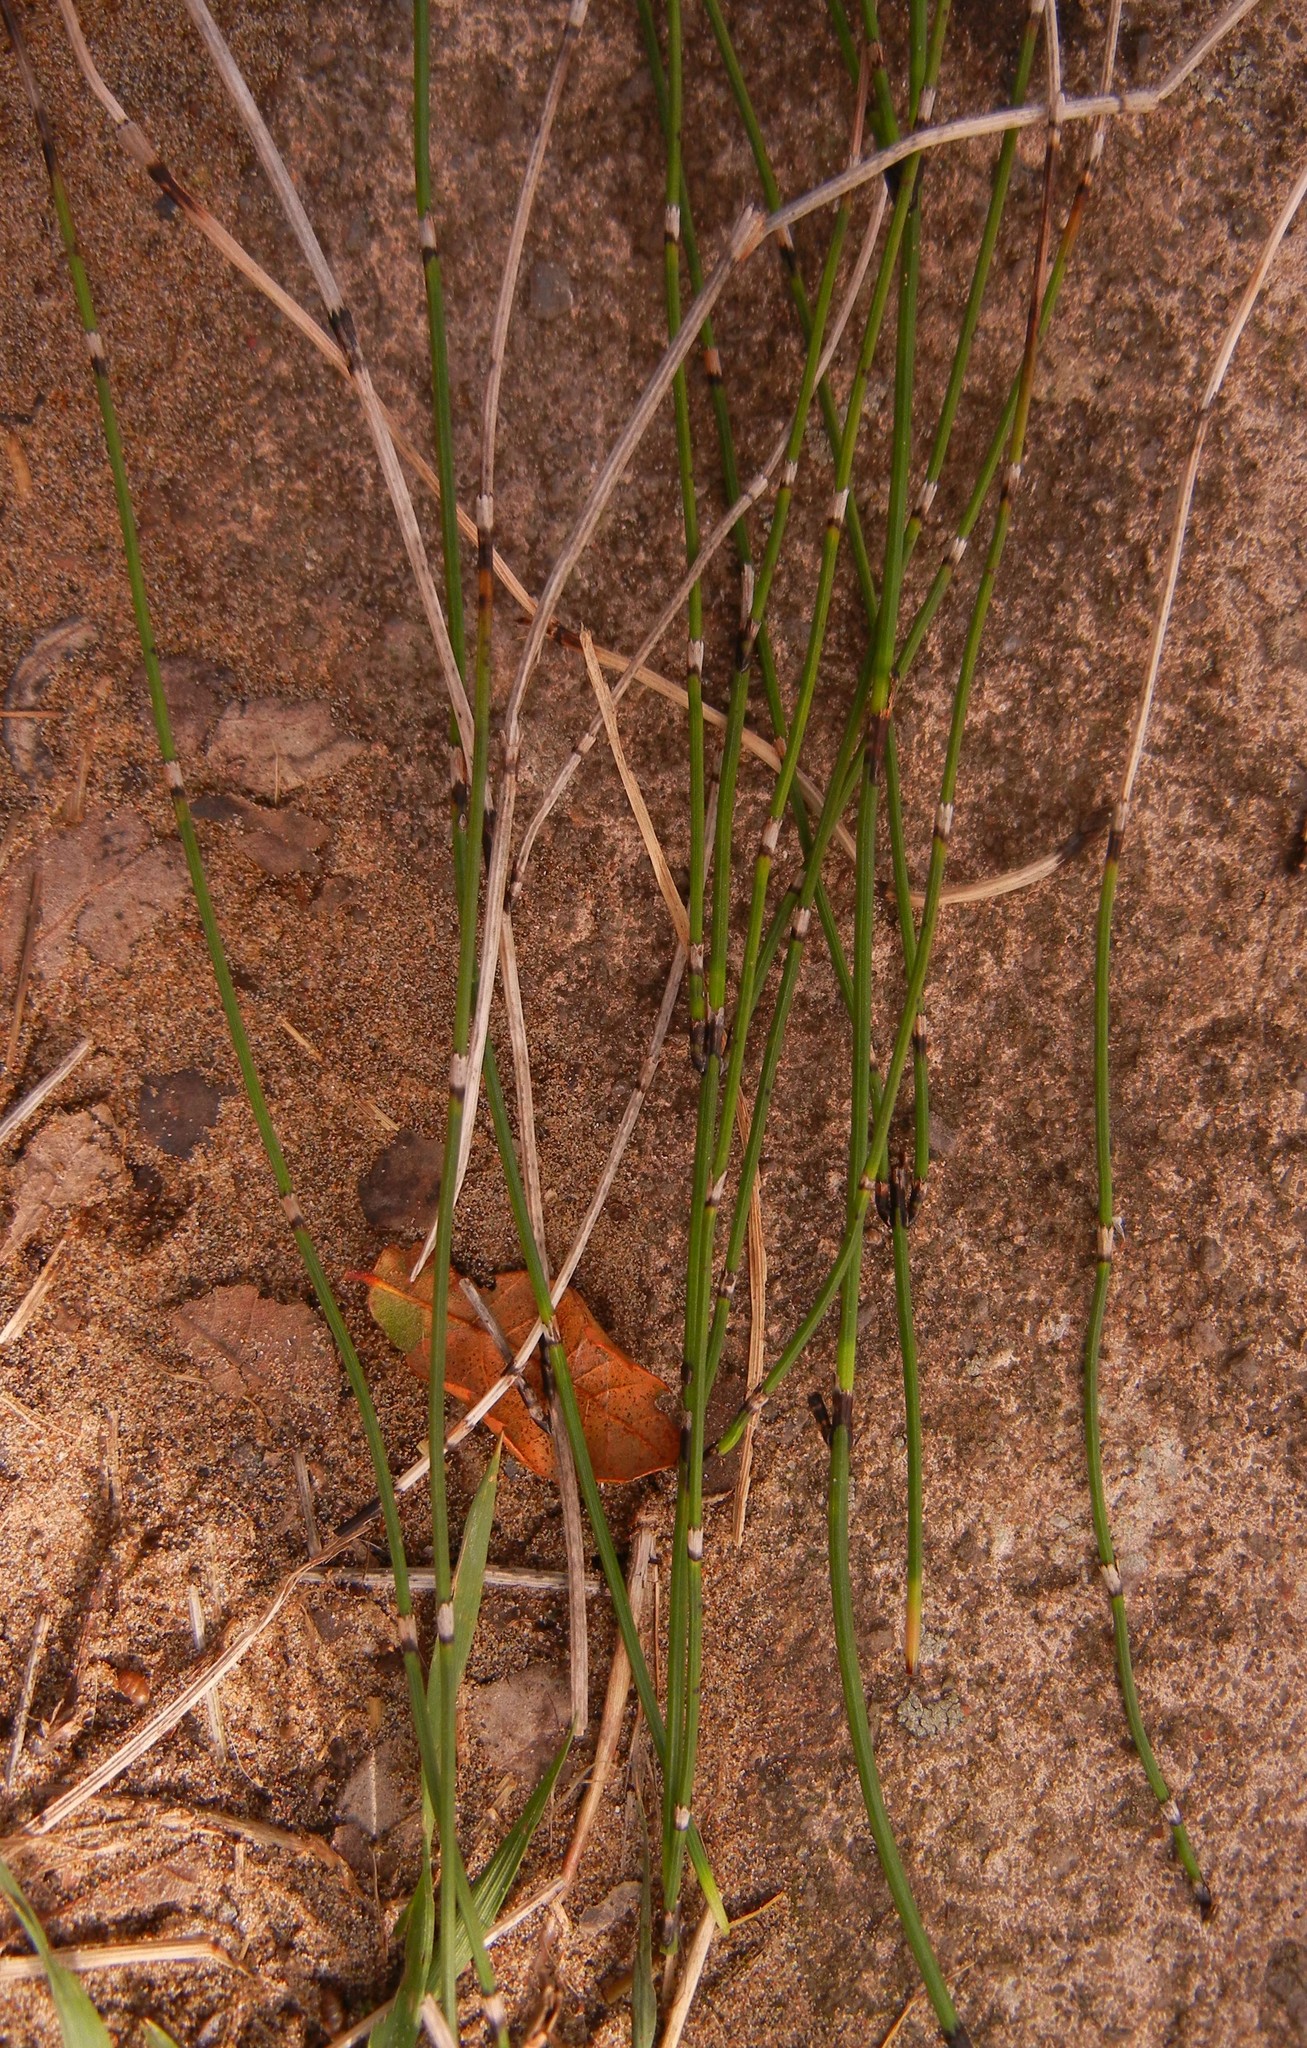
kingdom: Plantae
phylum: Tracheophyta
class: Polypodiopsida
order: Equisetales
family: Equisetaceae
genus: Equisetum
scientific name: Equisetum ramosissimum
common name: Branched horsetail
